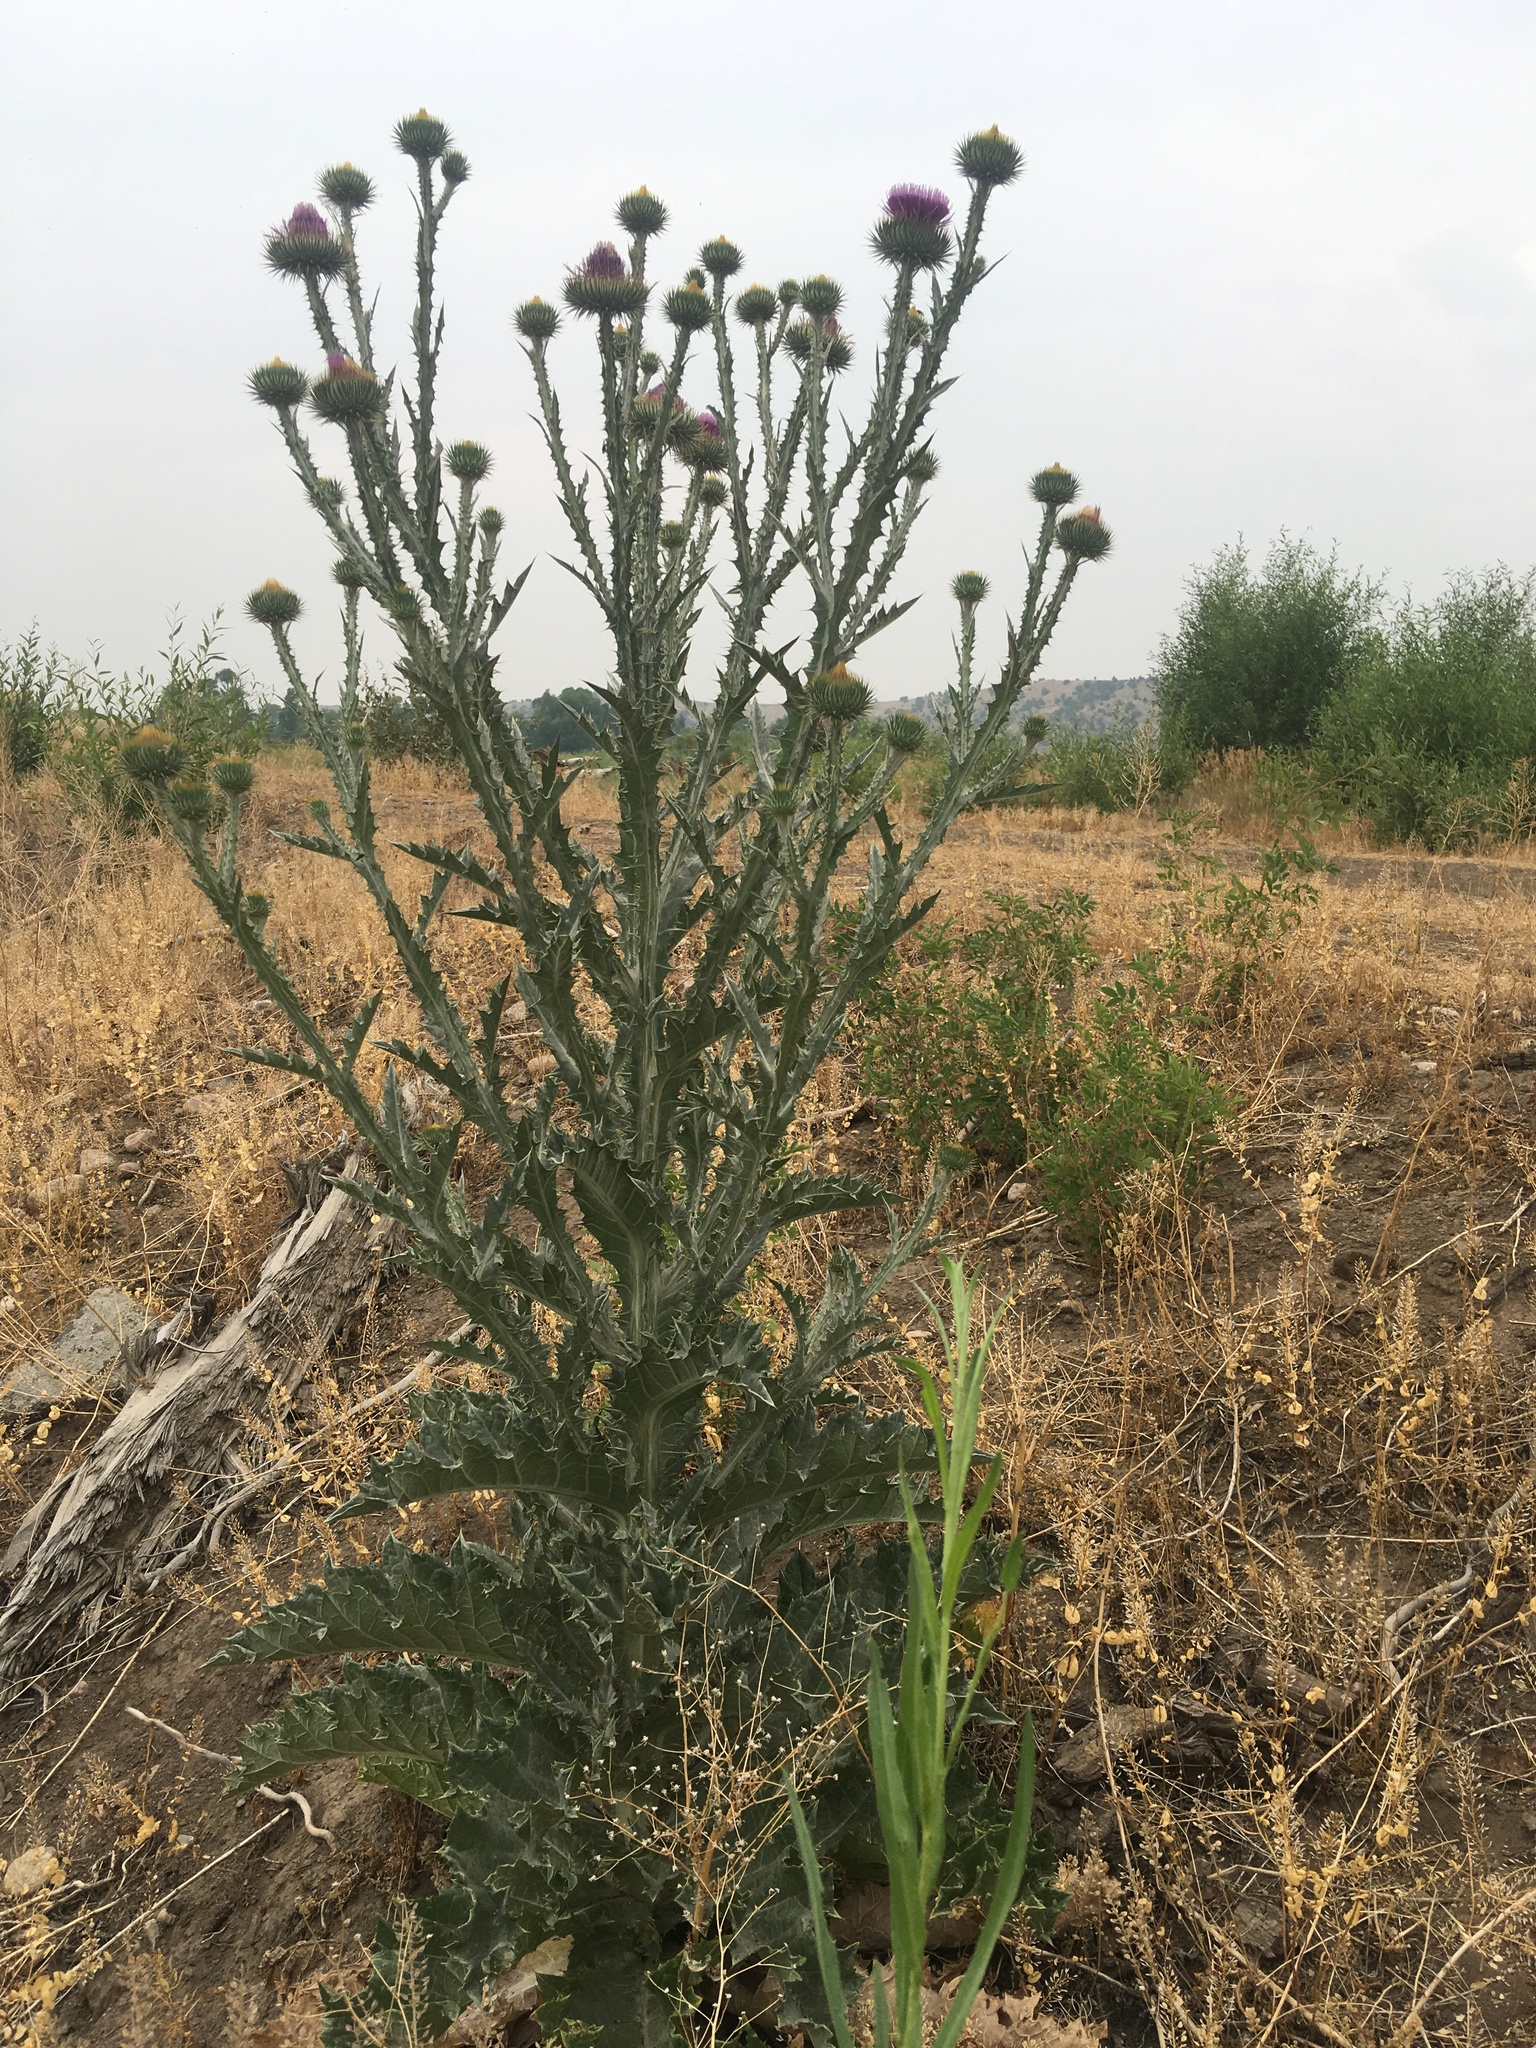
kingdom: Plantae
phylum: Tracheophyta
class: Magnoliopsida
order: Asterales
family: Asteraceae
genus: Onopordum
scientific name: Onopordum acanthium
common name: Scotch thistle
